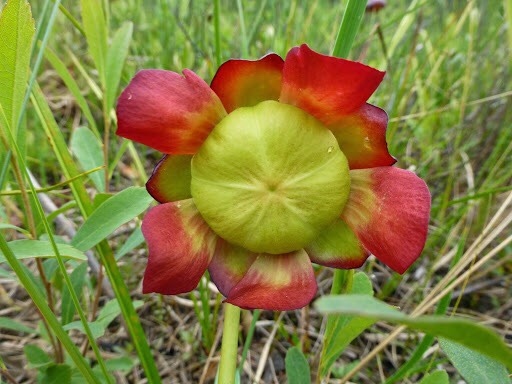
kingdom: Plantae
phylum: Tracheophyta
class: Magnoliopsida
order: Ericales
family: Sarraceniaceae
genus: Sarracenia
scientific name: Sarracenia purpurea
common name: Pitcherplant
